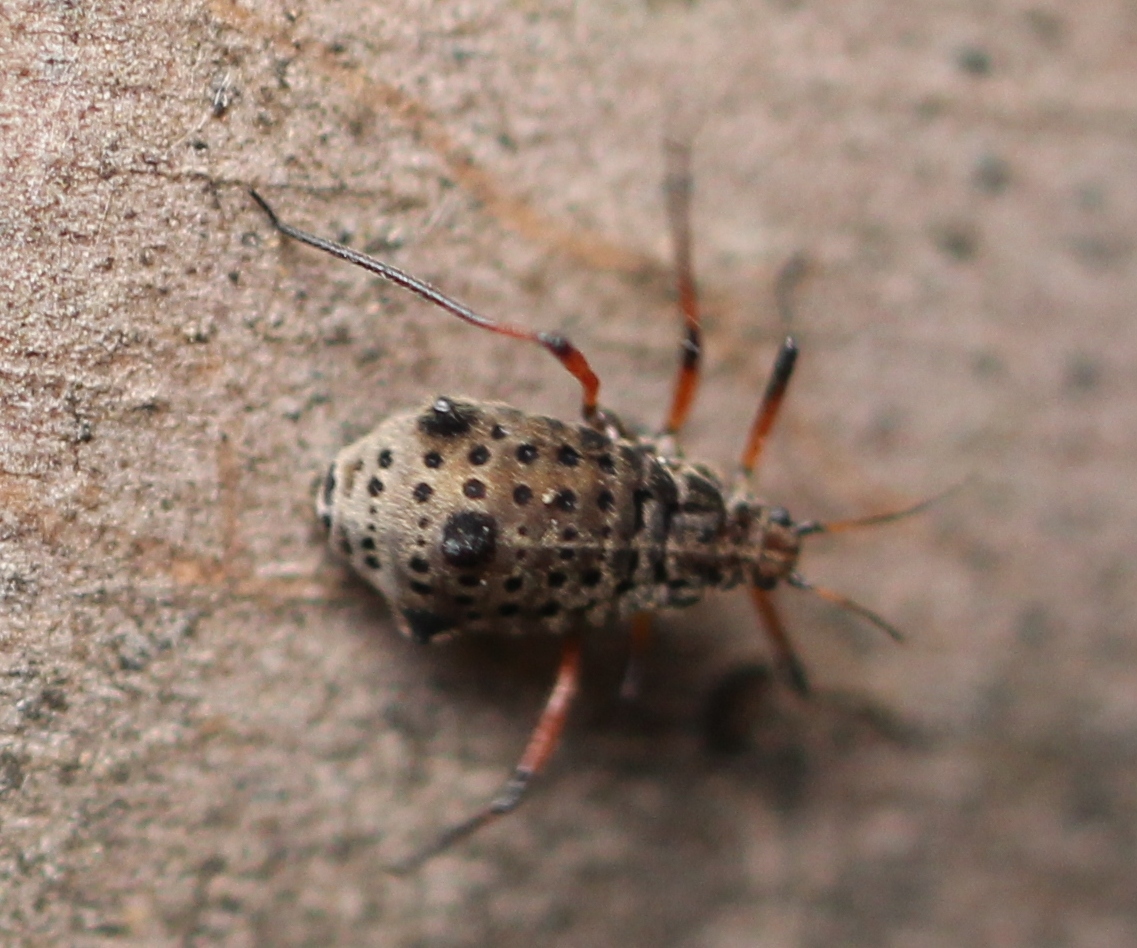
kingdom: Animalia
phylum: Arthropoda
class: Insecta
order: Hemiptera
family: Aphididae
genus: Tuberolachnus
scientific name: Tuberolachnus salignus
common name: Giant willow aphid
